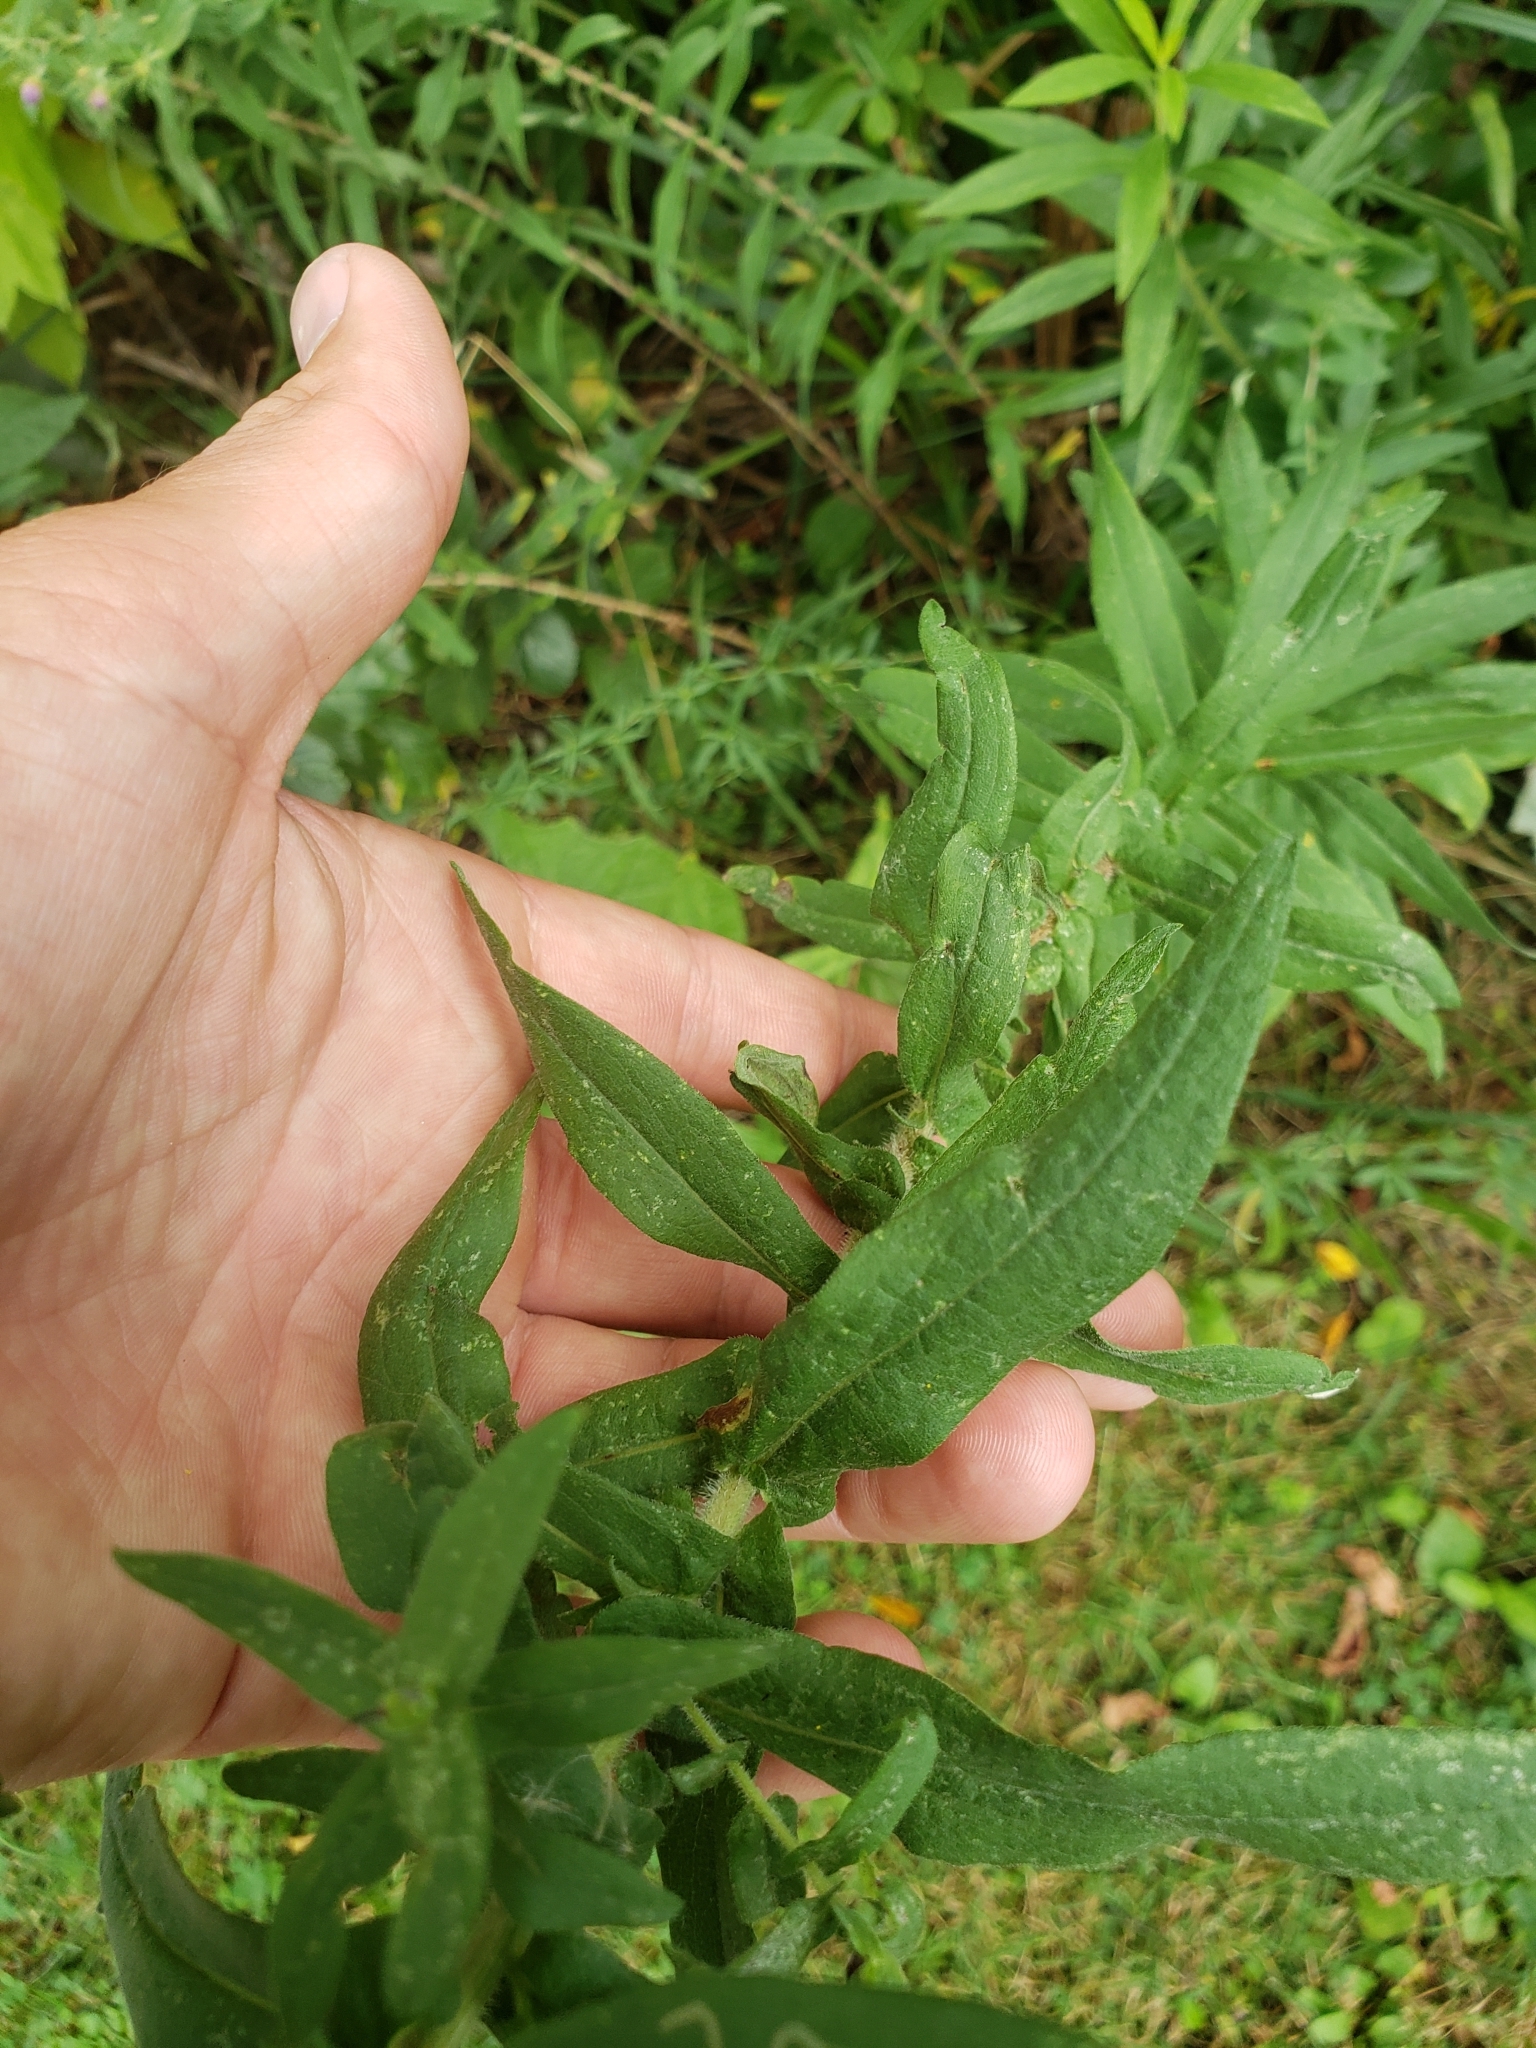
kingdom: Plantae
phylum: Tracheophyta
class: Magnoliopsida
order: Asterales
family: Asteraceae
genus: Symphyotrichum
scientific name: Symphyotrichum novae-angliae
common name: Michaelmas daisy
